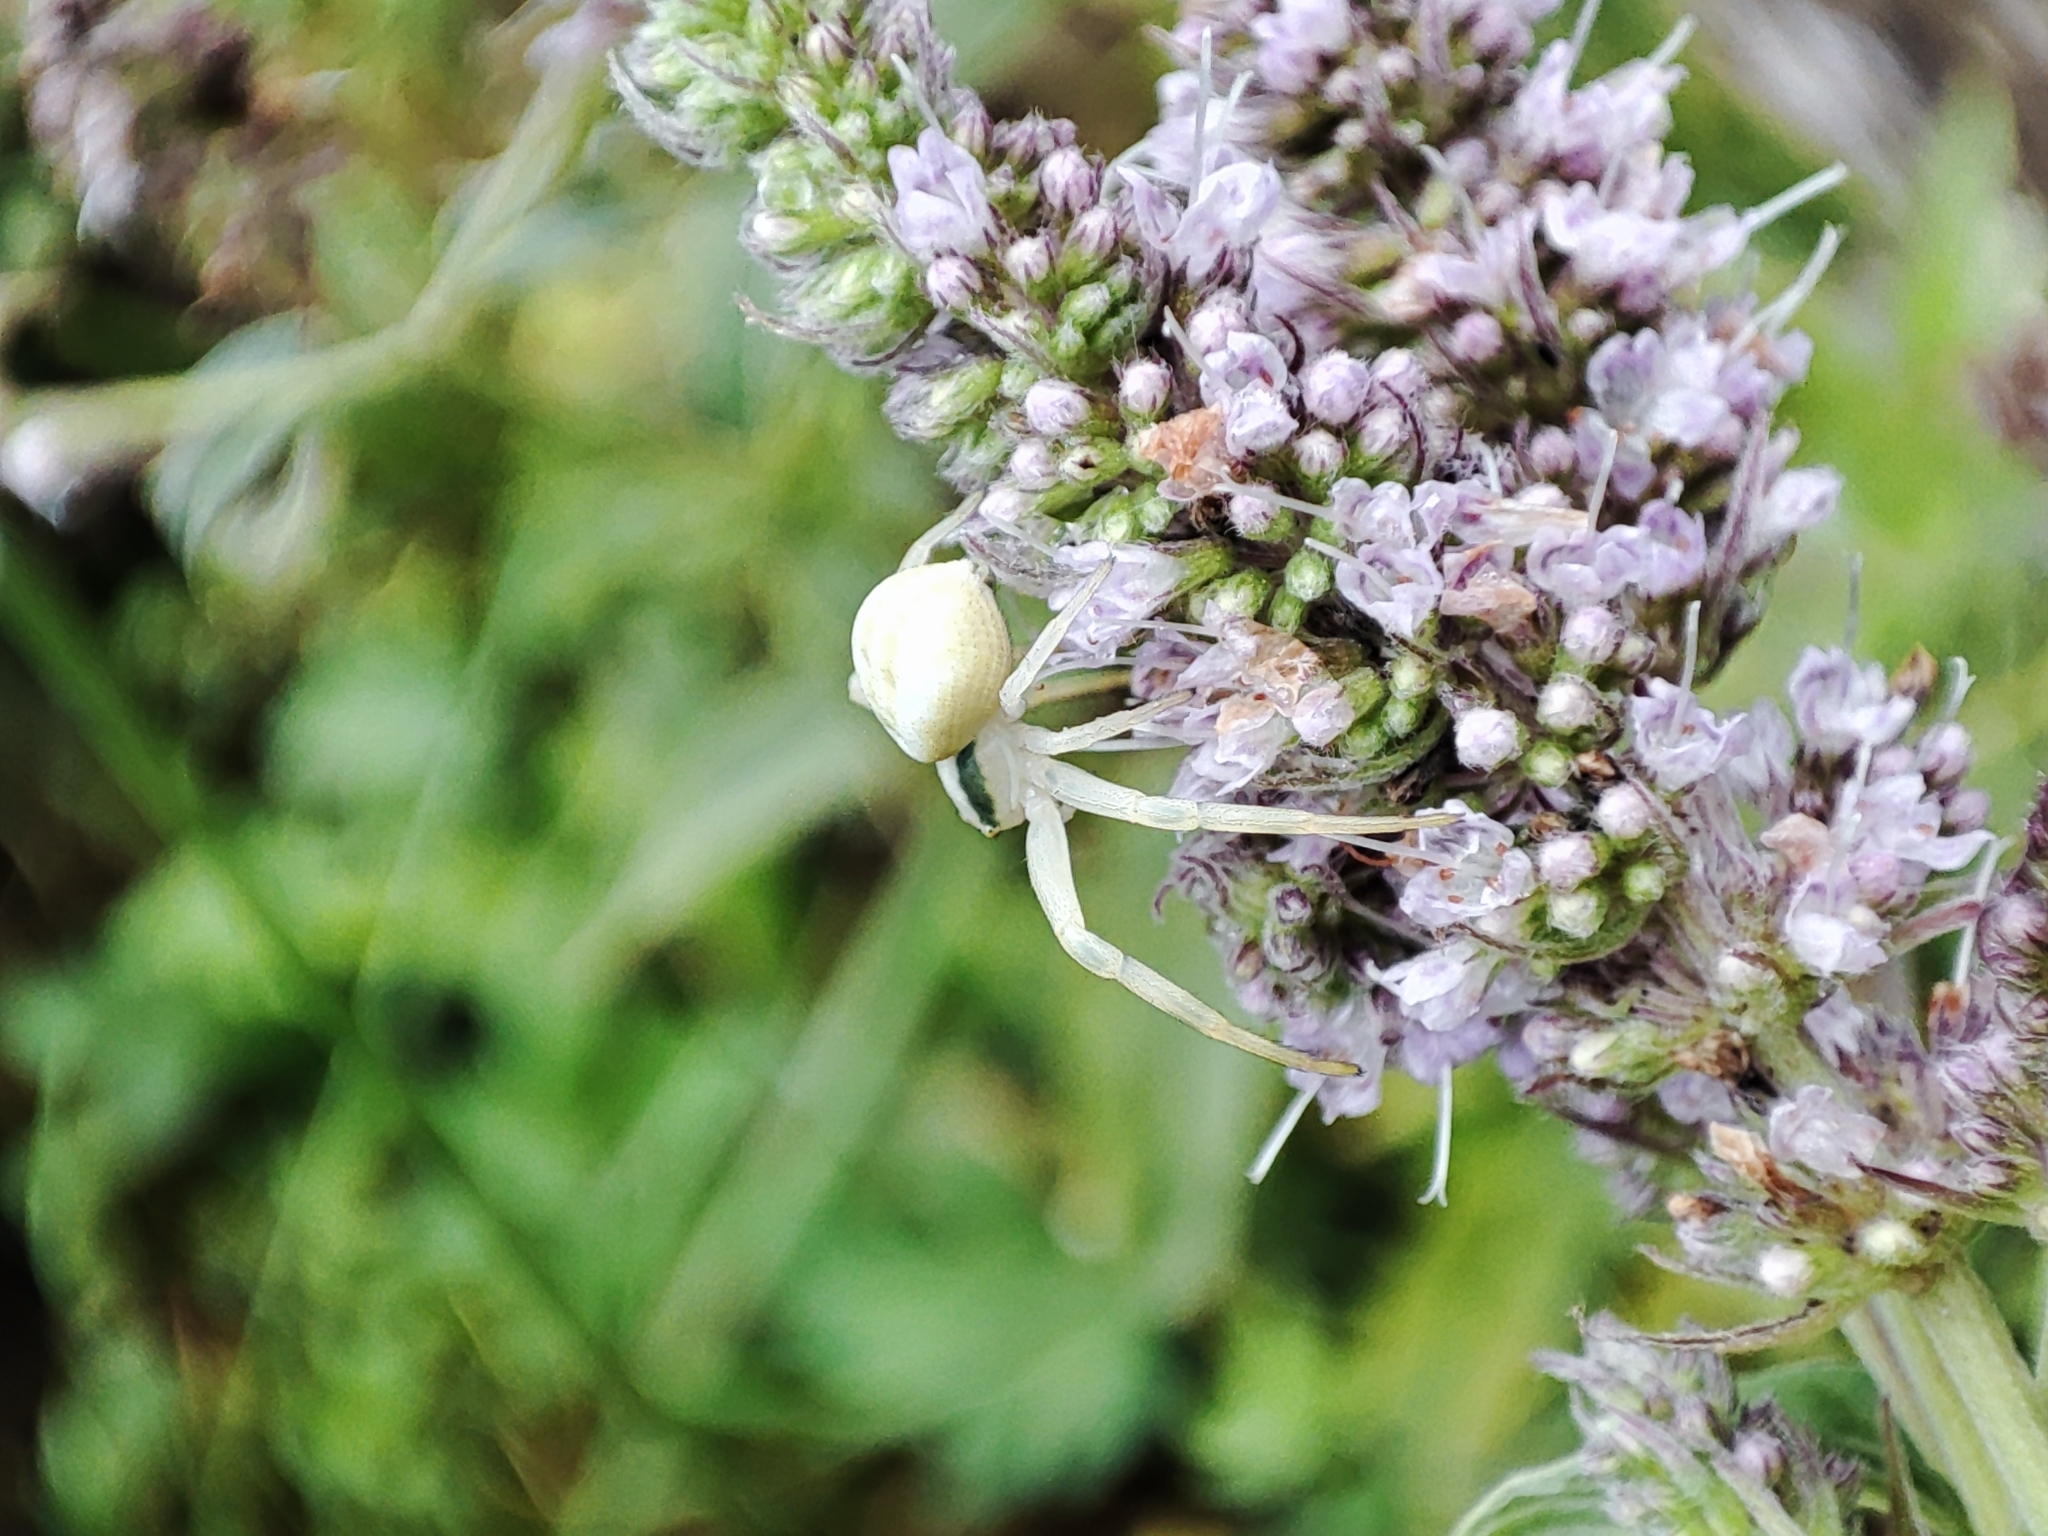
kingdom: Animalia
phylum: Arthropoda
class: Arachnida
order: Araneae
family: Thomisidae
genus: Misumena
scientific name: Misumena vatia
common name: Goldenrod crab spider
